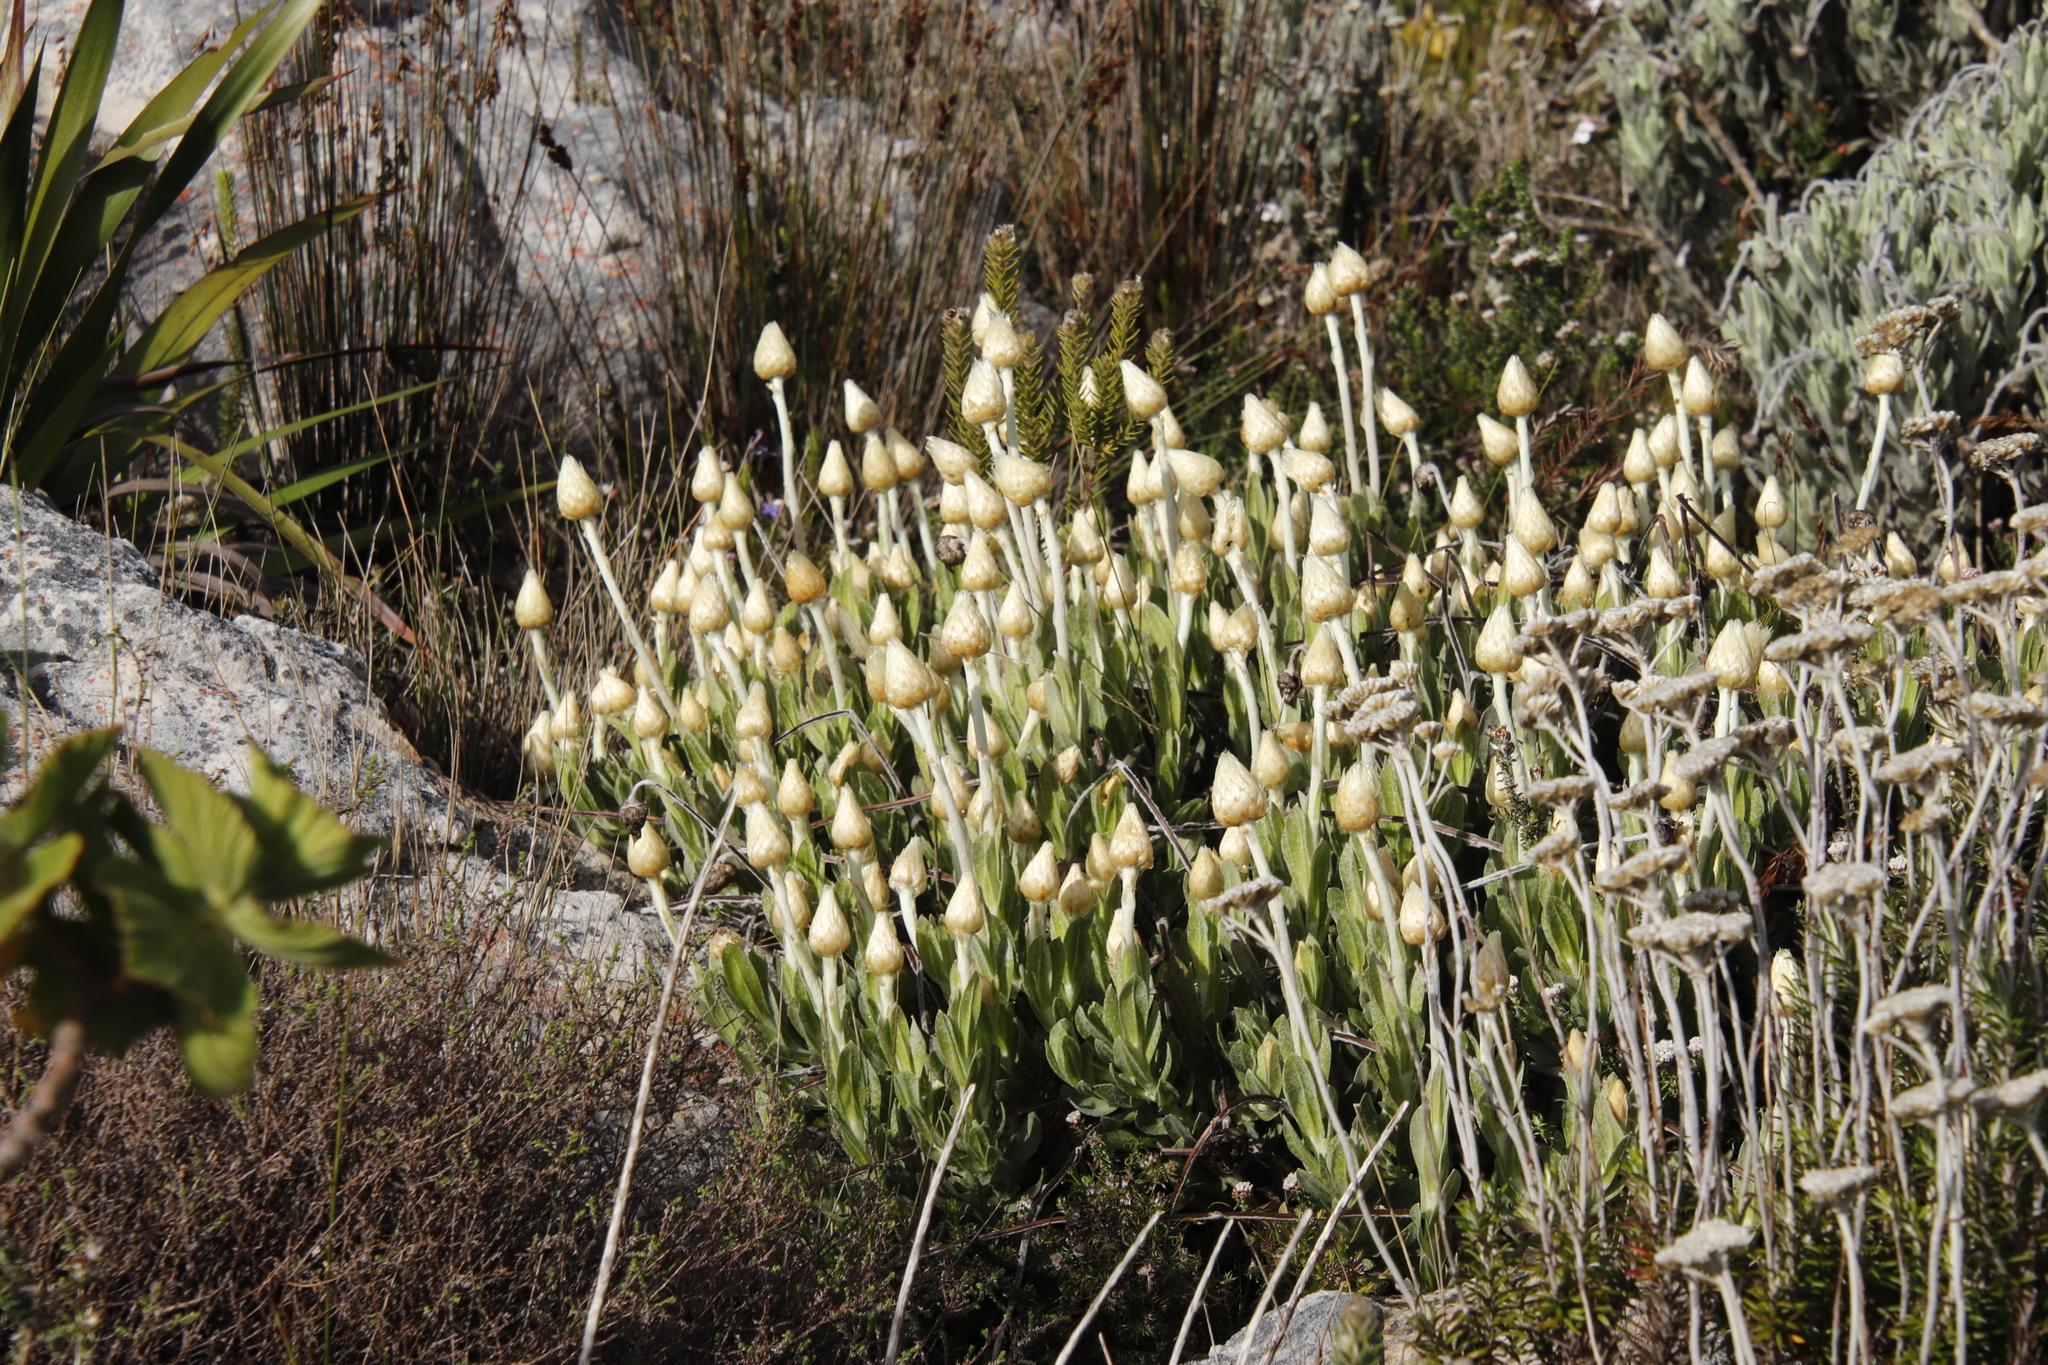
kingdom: Plantae
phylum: Tracheophyta
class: Magnoliopsida
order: Asterales
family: Asteraceae
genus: Syncarpha
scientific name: Syncarpha speciosissima
